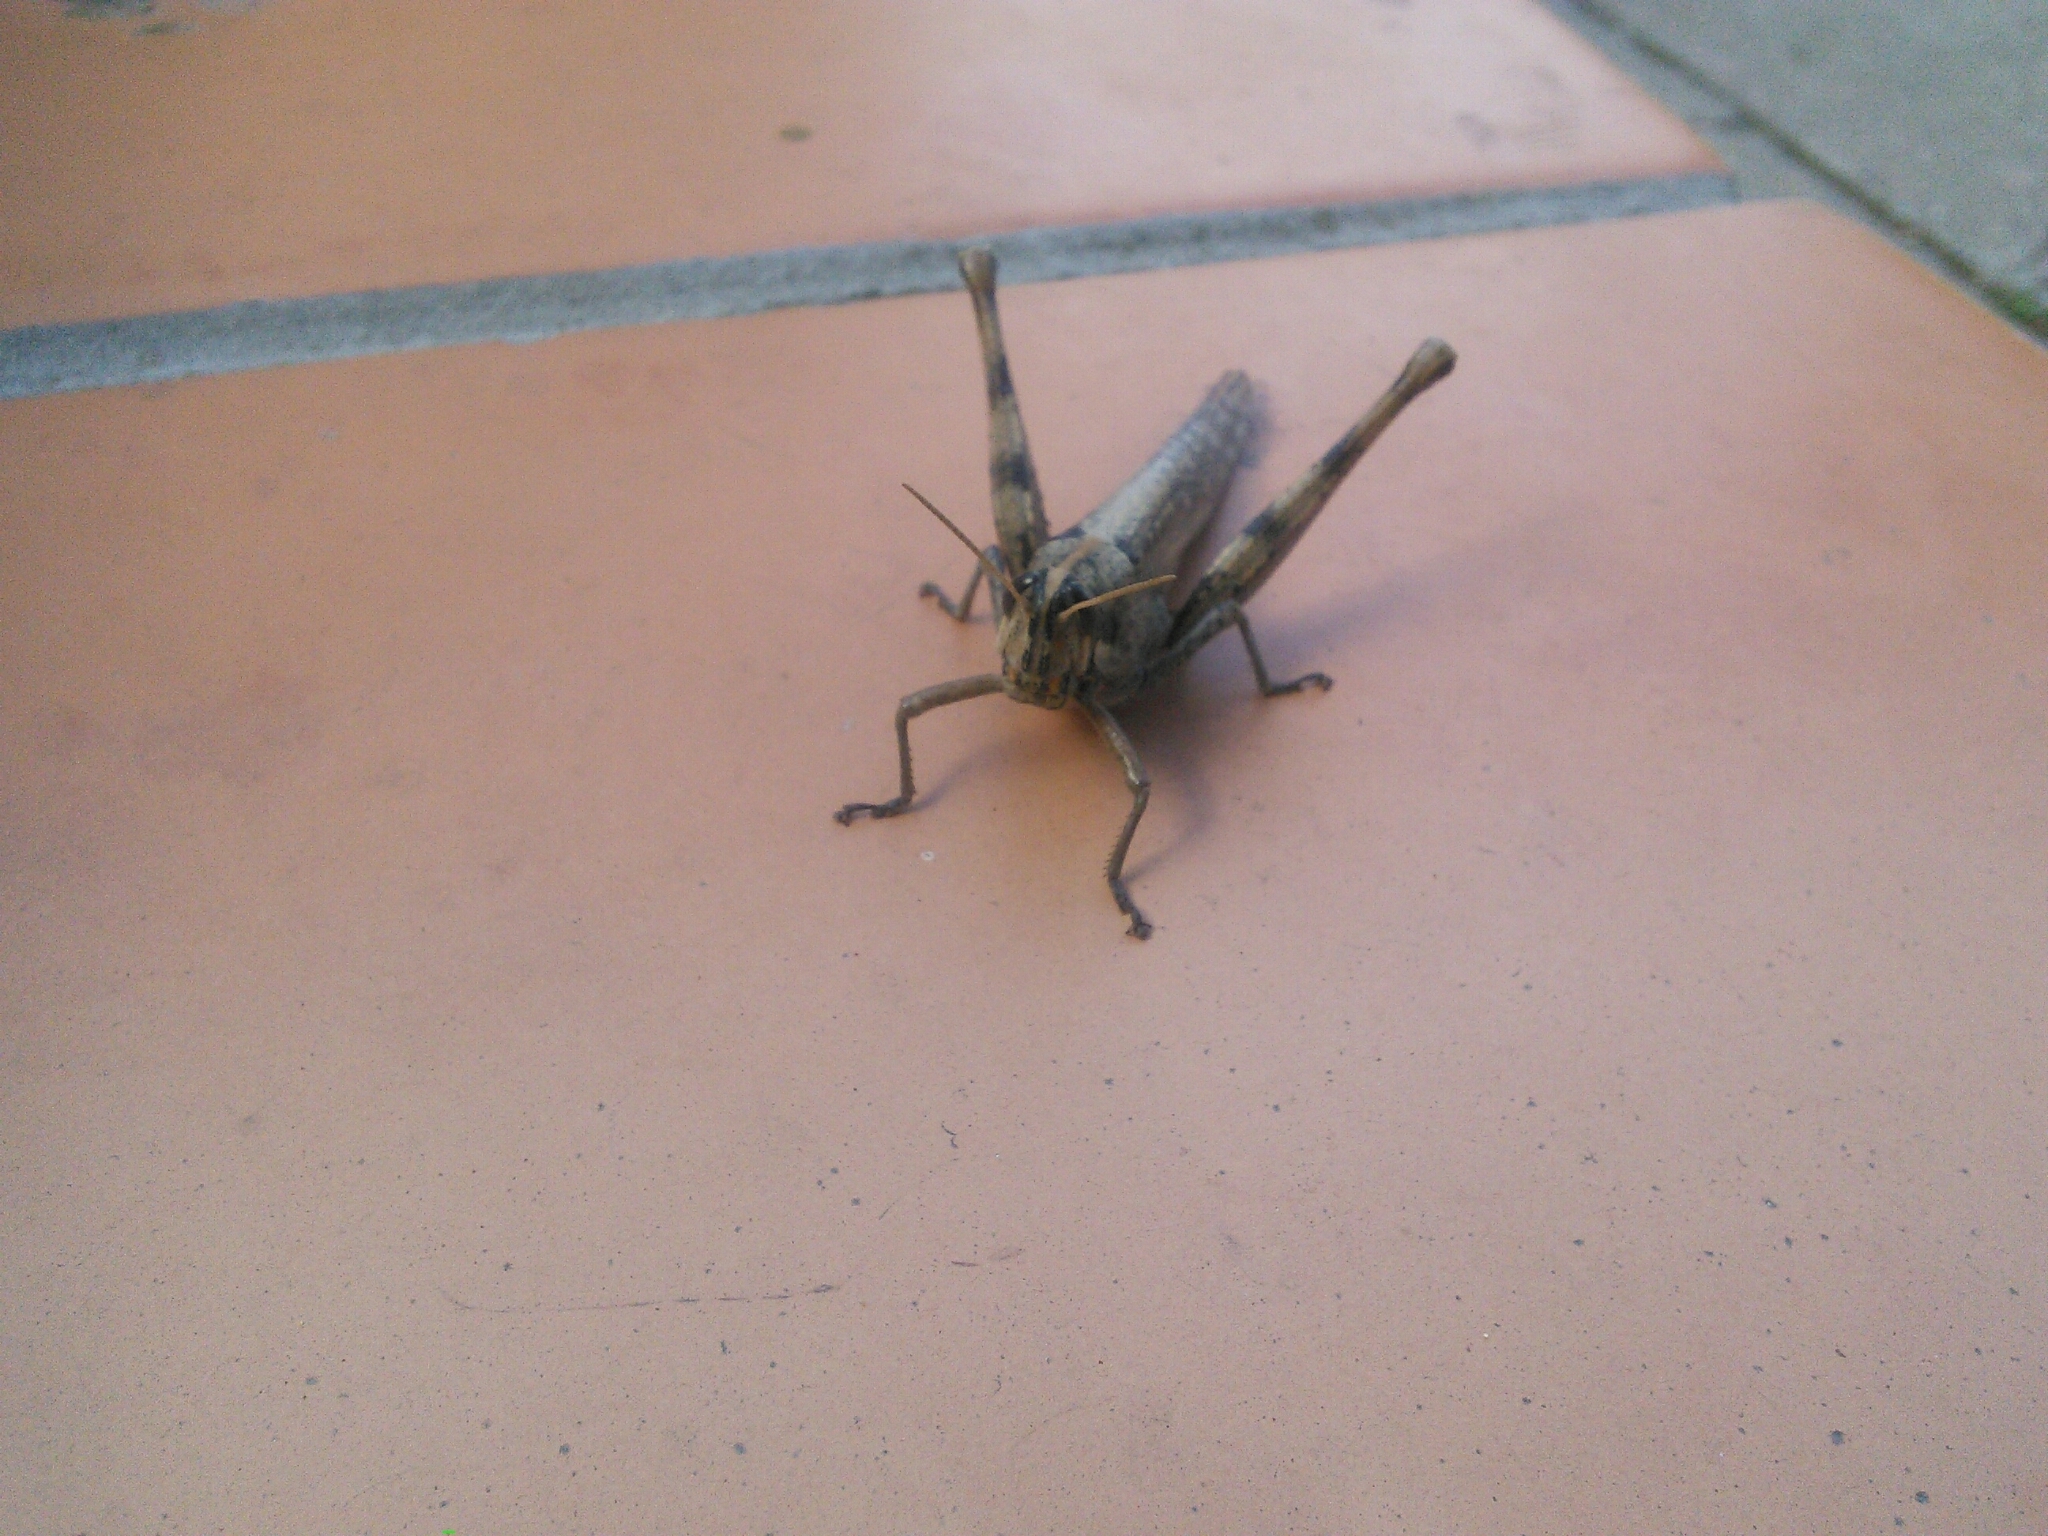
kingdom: Animalia
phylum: Arthropoda
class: Insecta
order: Orthoptera
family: Acrididae
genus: Schistocerca
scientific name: Schistocerca nitens
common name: Vagrant grasshopper
